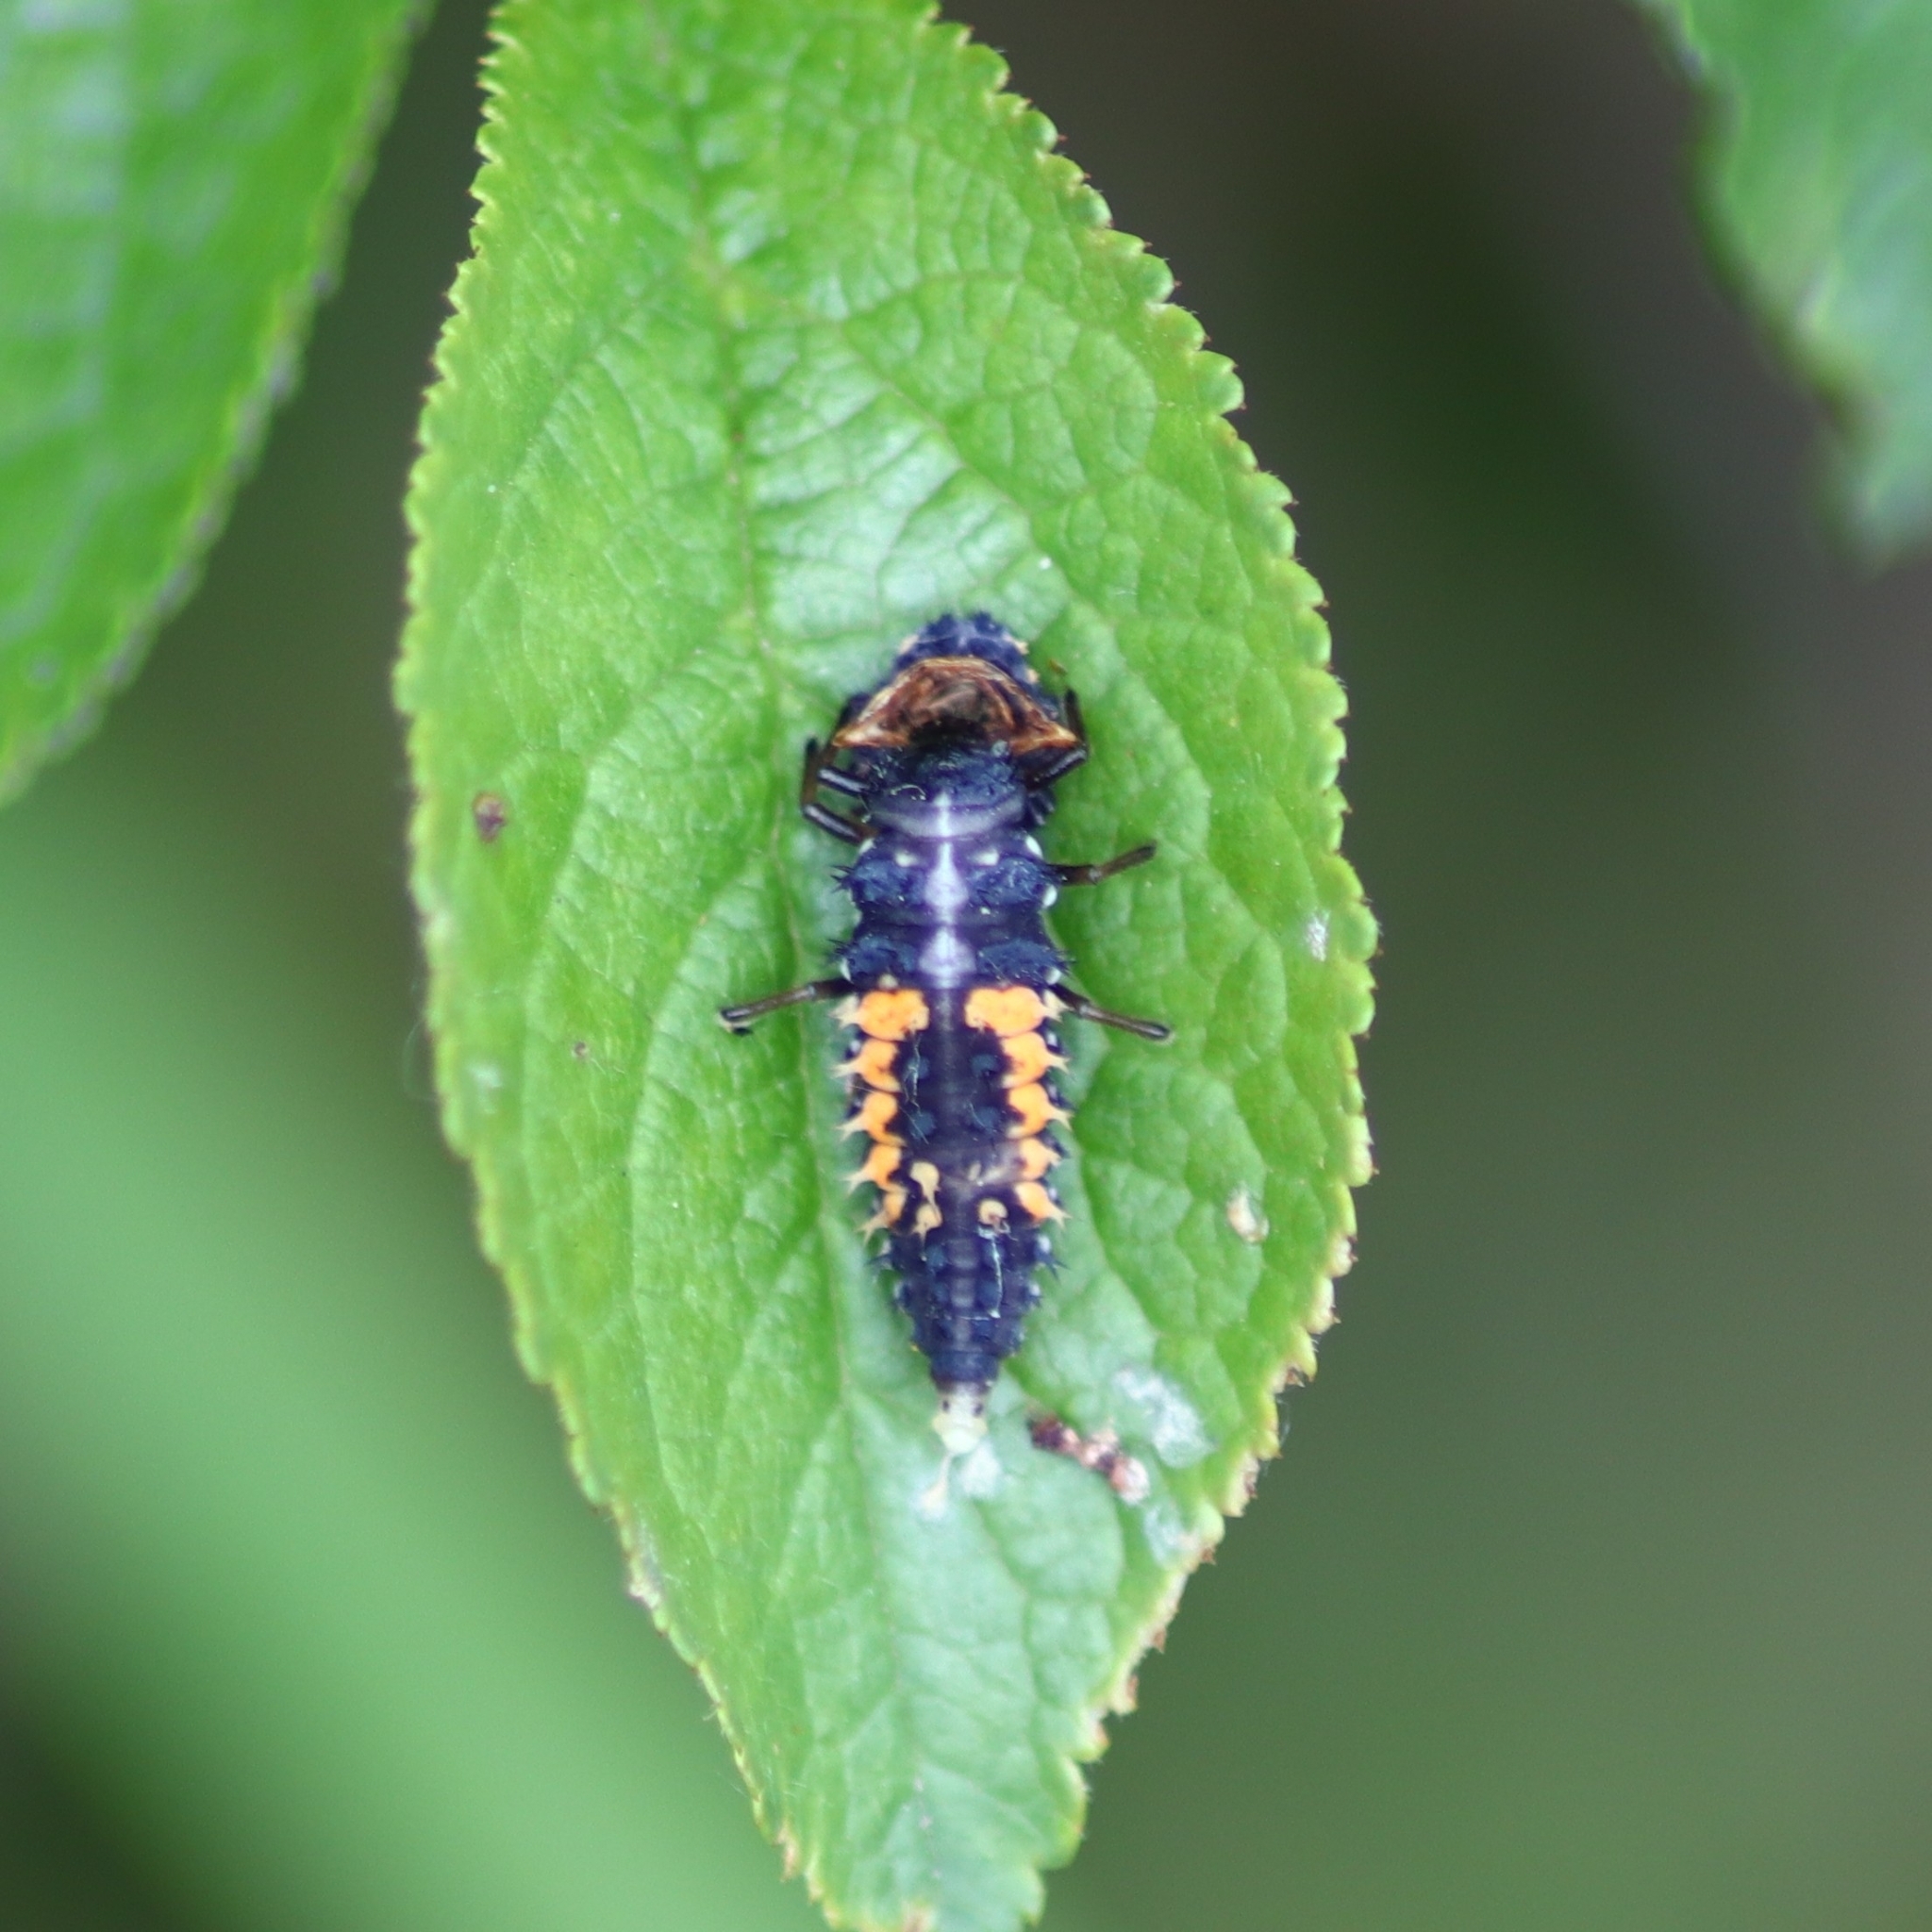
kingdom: Animalia
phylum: Arthropoda
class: Insecta
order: Coleoptera
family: Coccinellidae
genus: Harmonia
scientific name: Harmonia axyridis
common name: Harlequin ladybird
